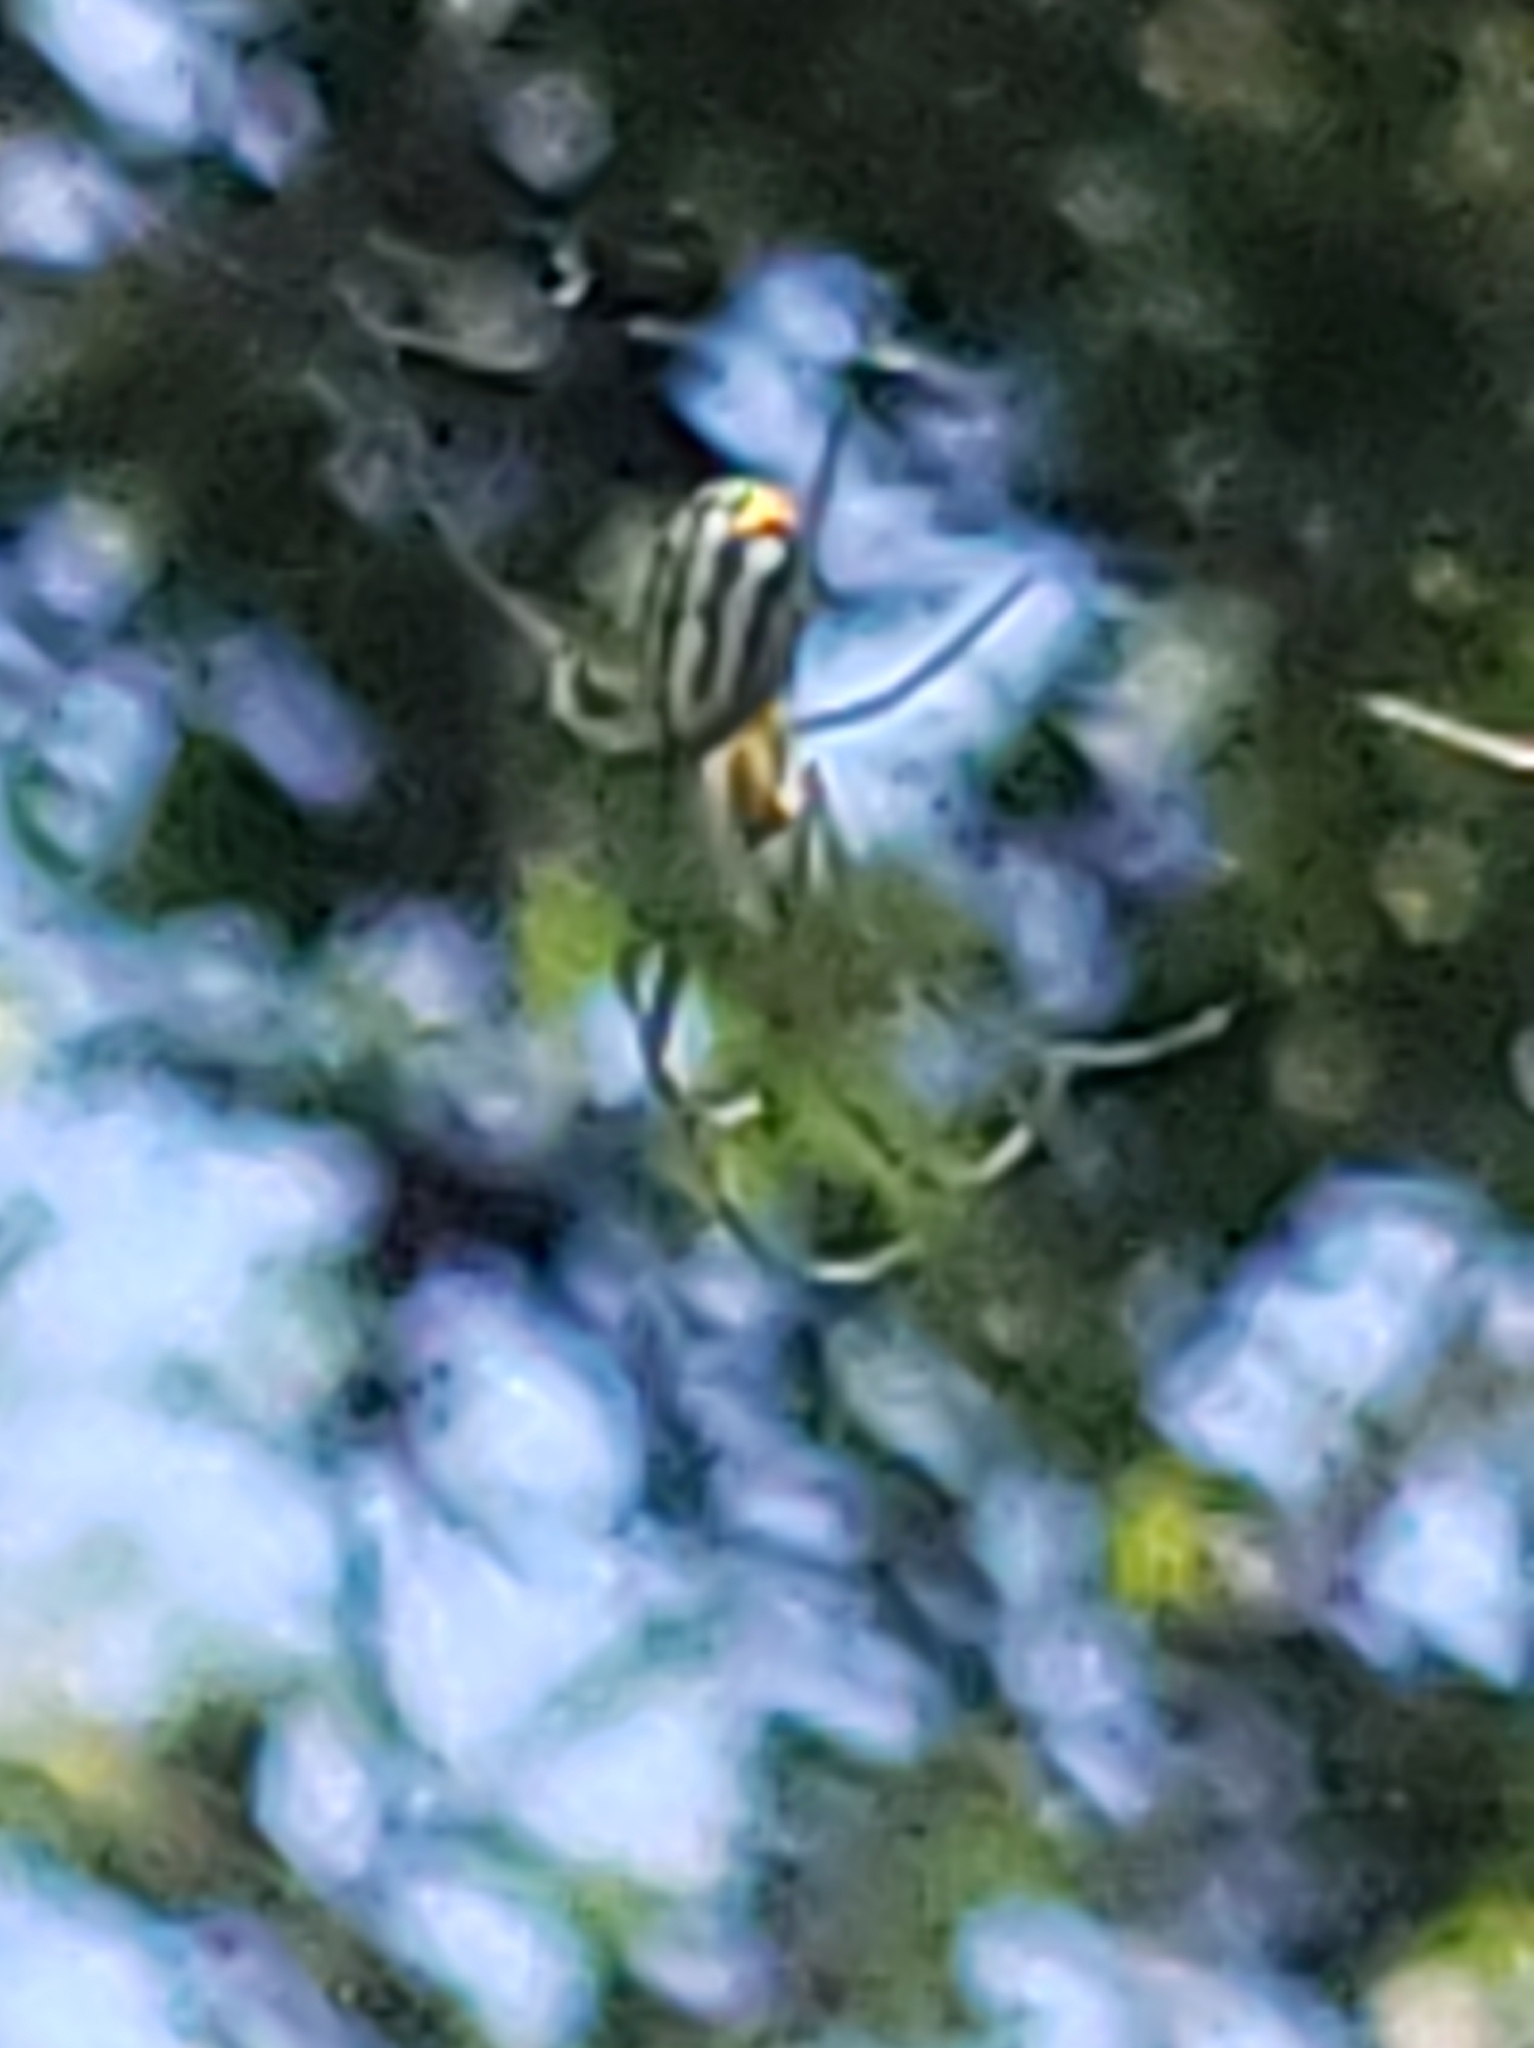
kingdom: Animalia
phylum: Arthropoda
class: Arachnida
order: Araneae
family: Tetragnathidae
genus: Leucauge
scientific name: Leucauge argyrobapta
